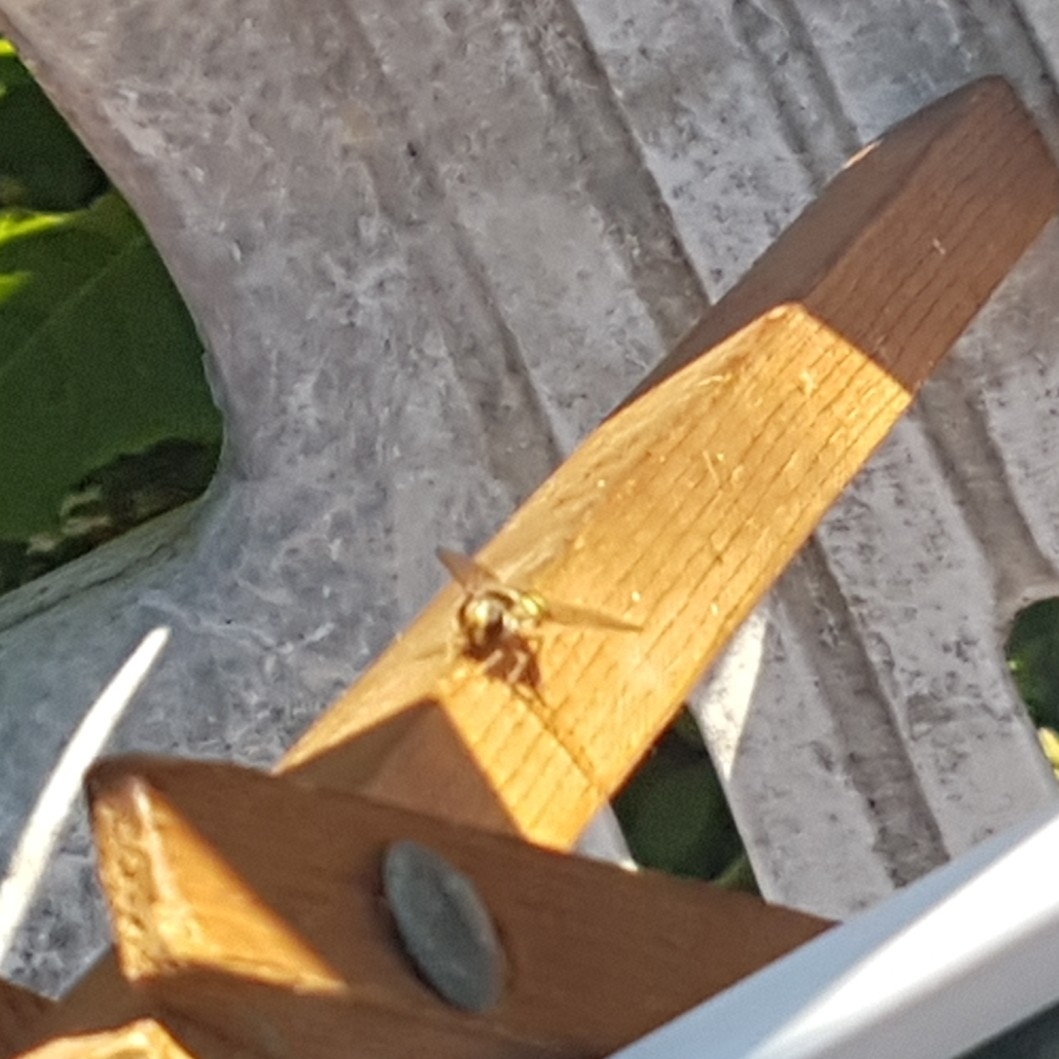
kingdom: Animalia
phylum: Arthropoda
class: Insecta
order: Diptera
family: Syrphidae
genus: Eupeodes
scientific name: Eupeodes fumipennis
